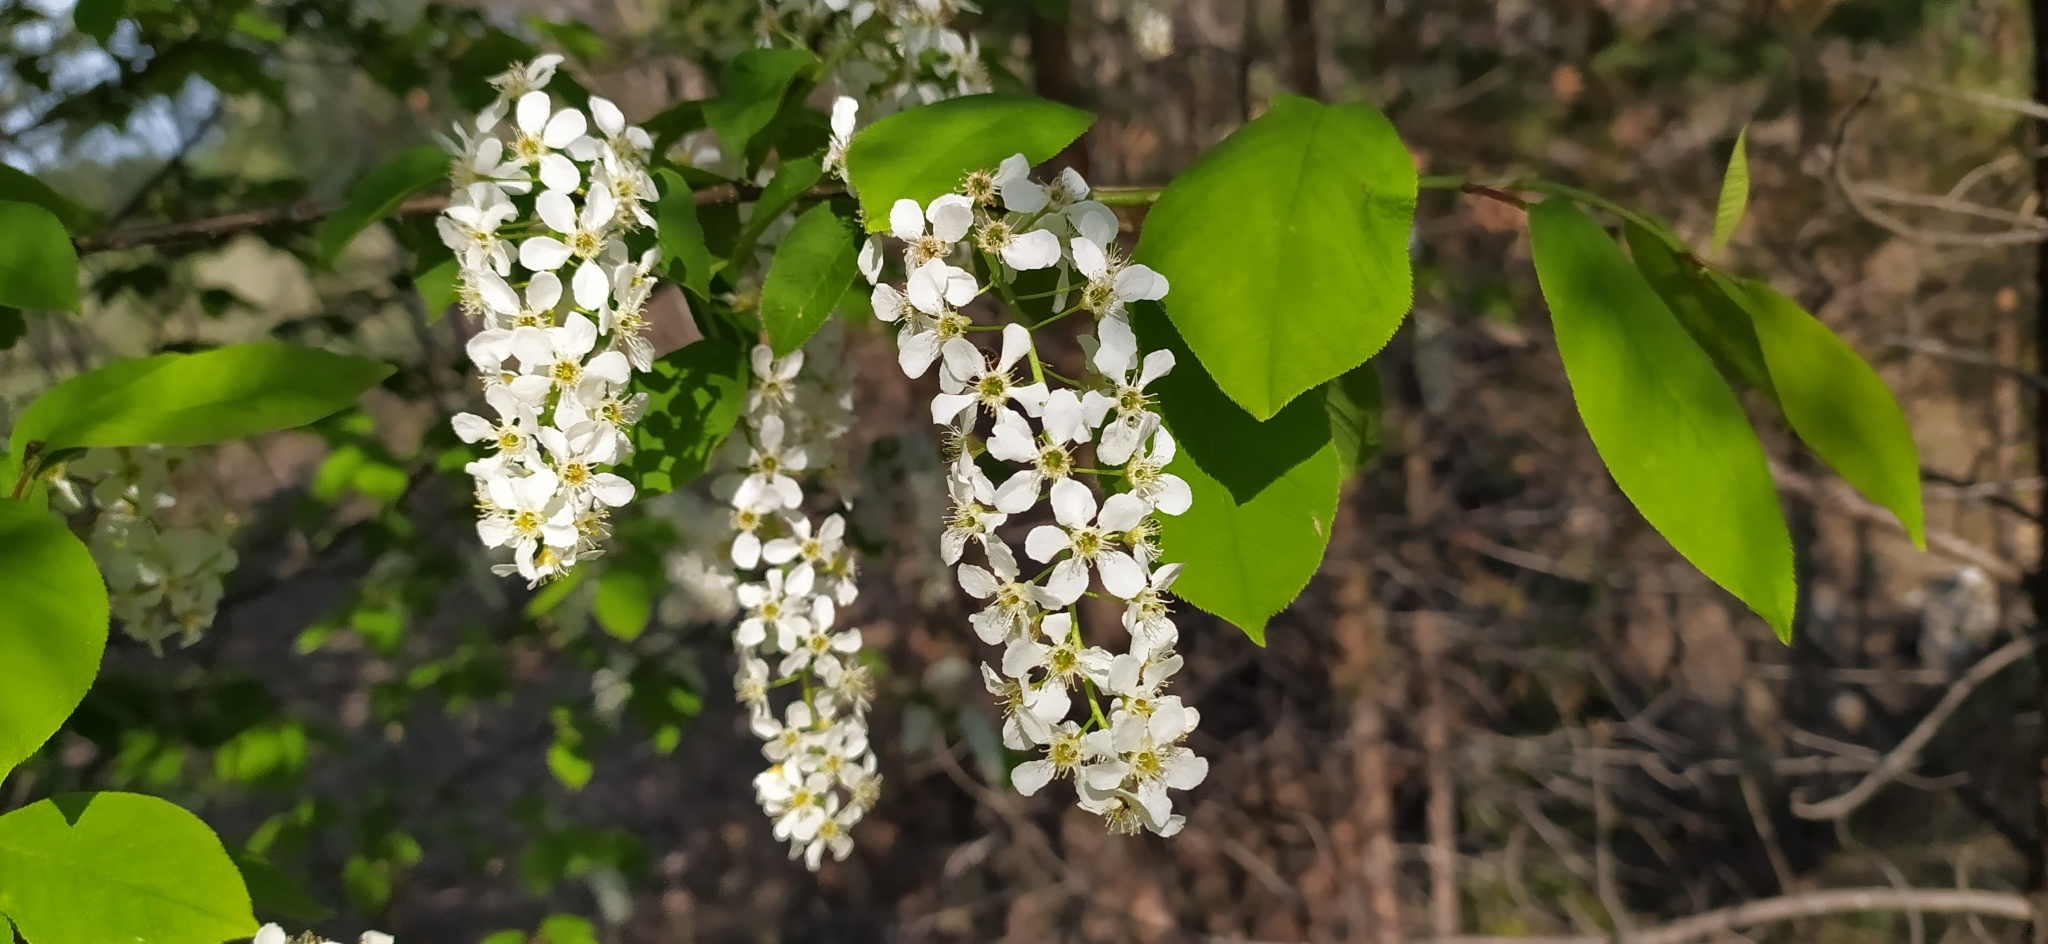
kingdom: Plantae
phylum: Tracheophyta
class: Magnoliopsida
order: Rosales
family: Rosaceae
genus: Prunus
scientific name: Prunus padus
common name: Bird cherry
